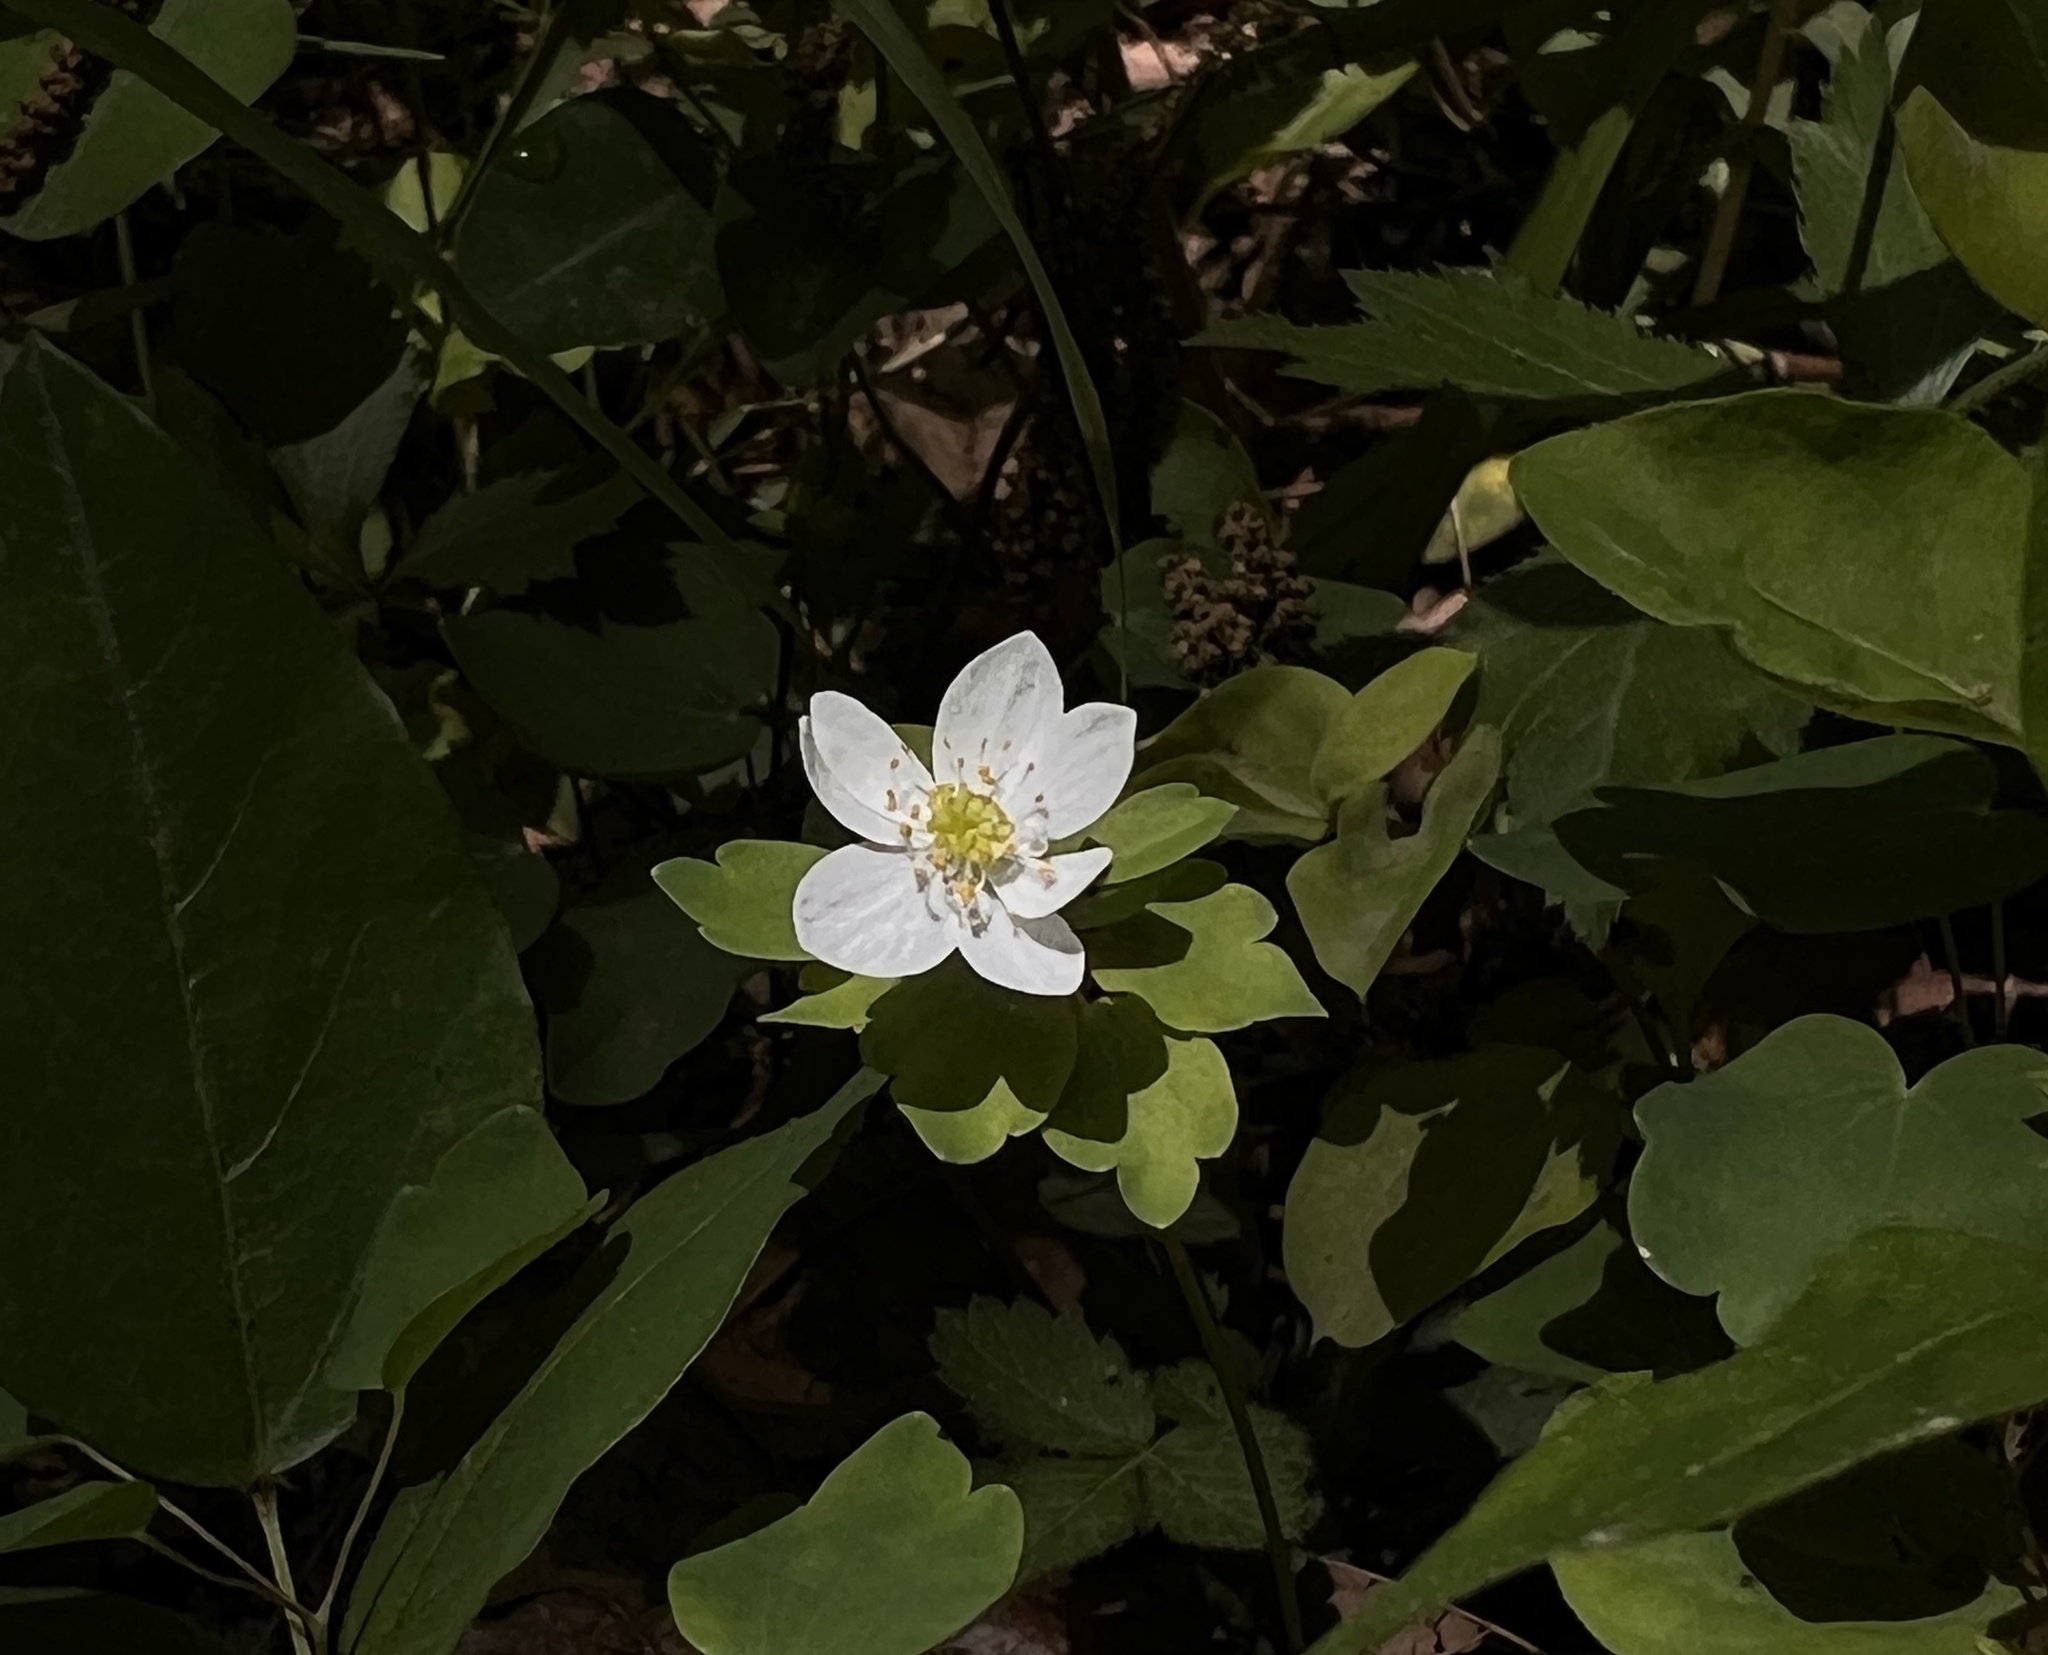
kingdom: Plantae
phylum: Tracheophyta
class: Magnoliopsida
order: Ranunculales
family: Ranunculaceae
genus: Thalictrum
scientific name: Thalictrum thalictroides
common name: Rue-anemone
